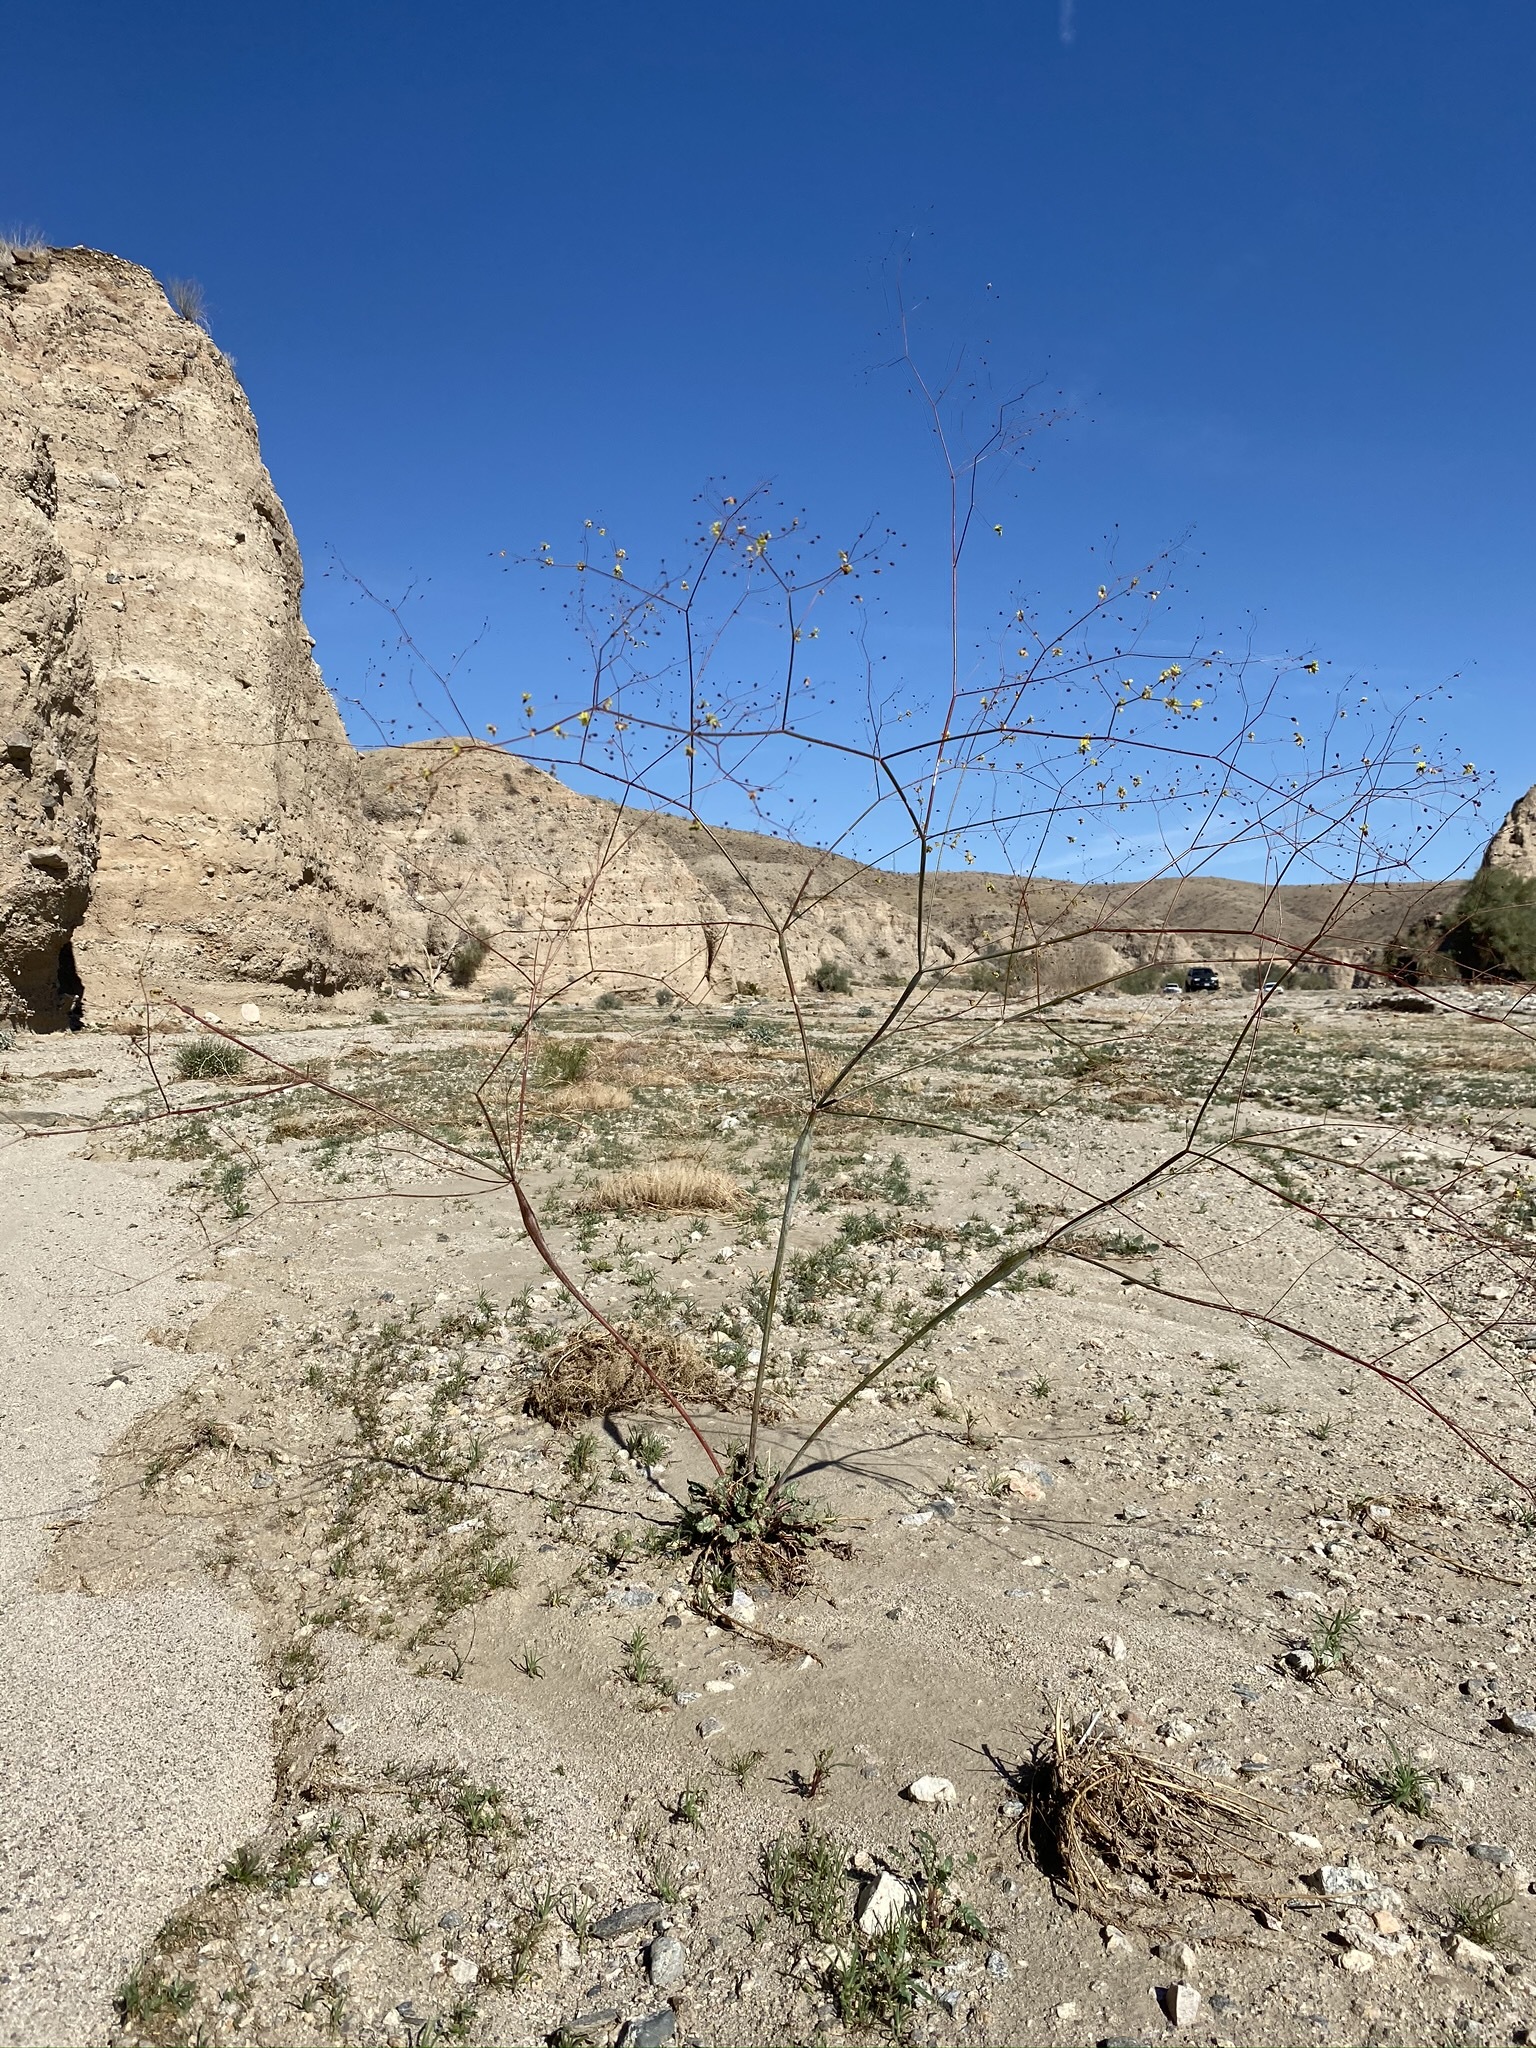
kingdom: Plantae
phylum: Tracheophyta
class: Magnoliopsida
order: Caryophyllales
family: Polygonaceae
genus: Eriogonum
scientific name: Eriogonum inflatum
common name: Desert trumpet
